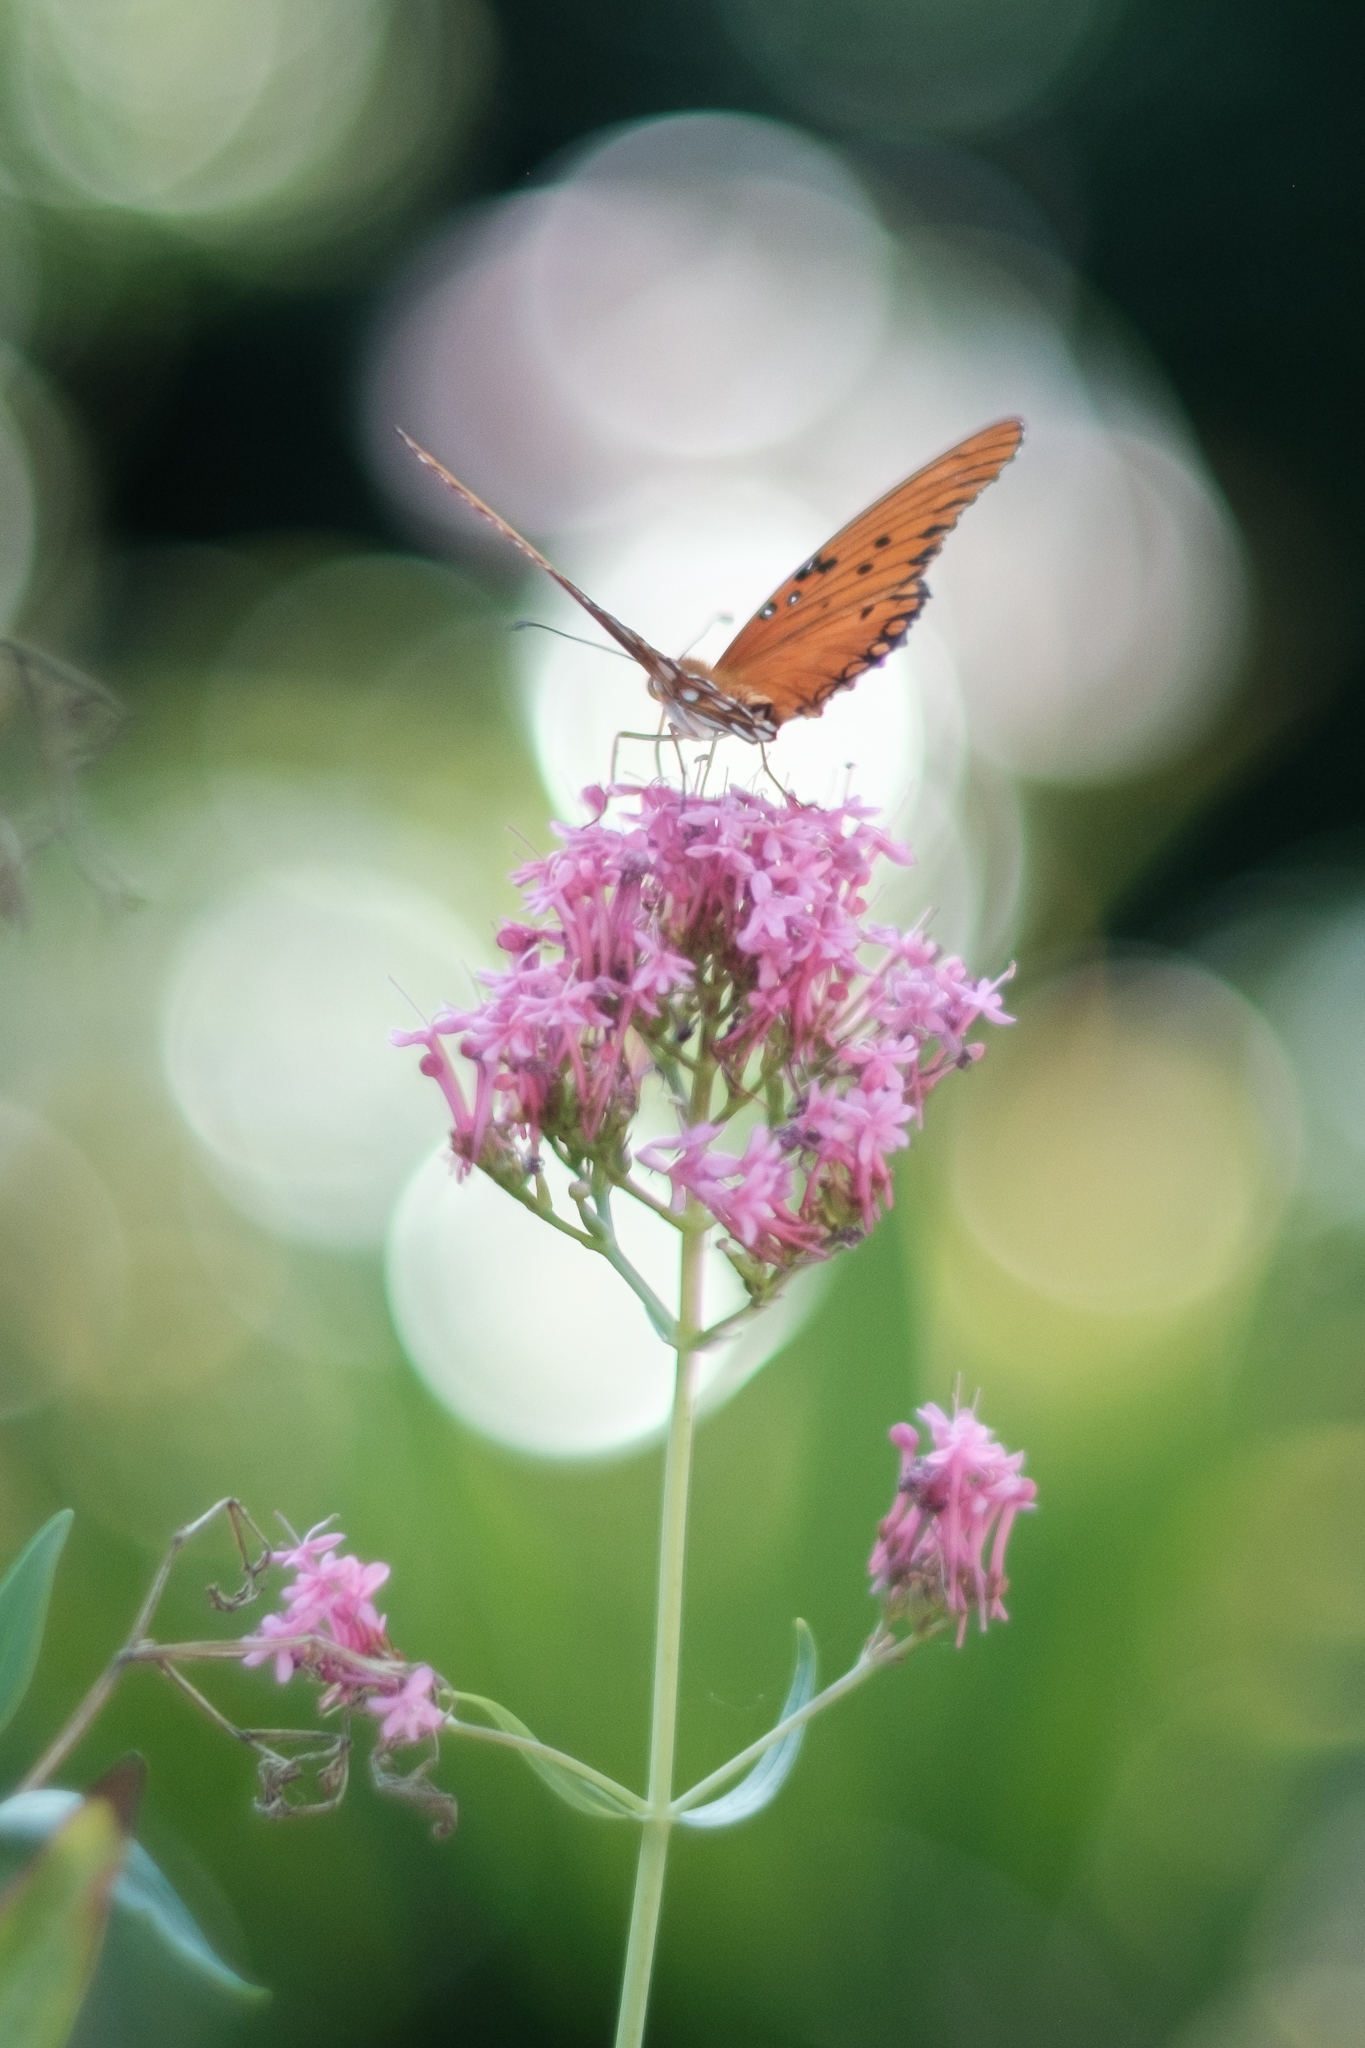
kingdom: Animalia
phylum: Arthropoda
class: Insecta
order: Lepidoptera
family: Nymphalidae
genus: Dione
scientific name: Dione vanillae
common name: Gulf fritillary
